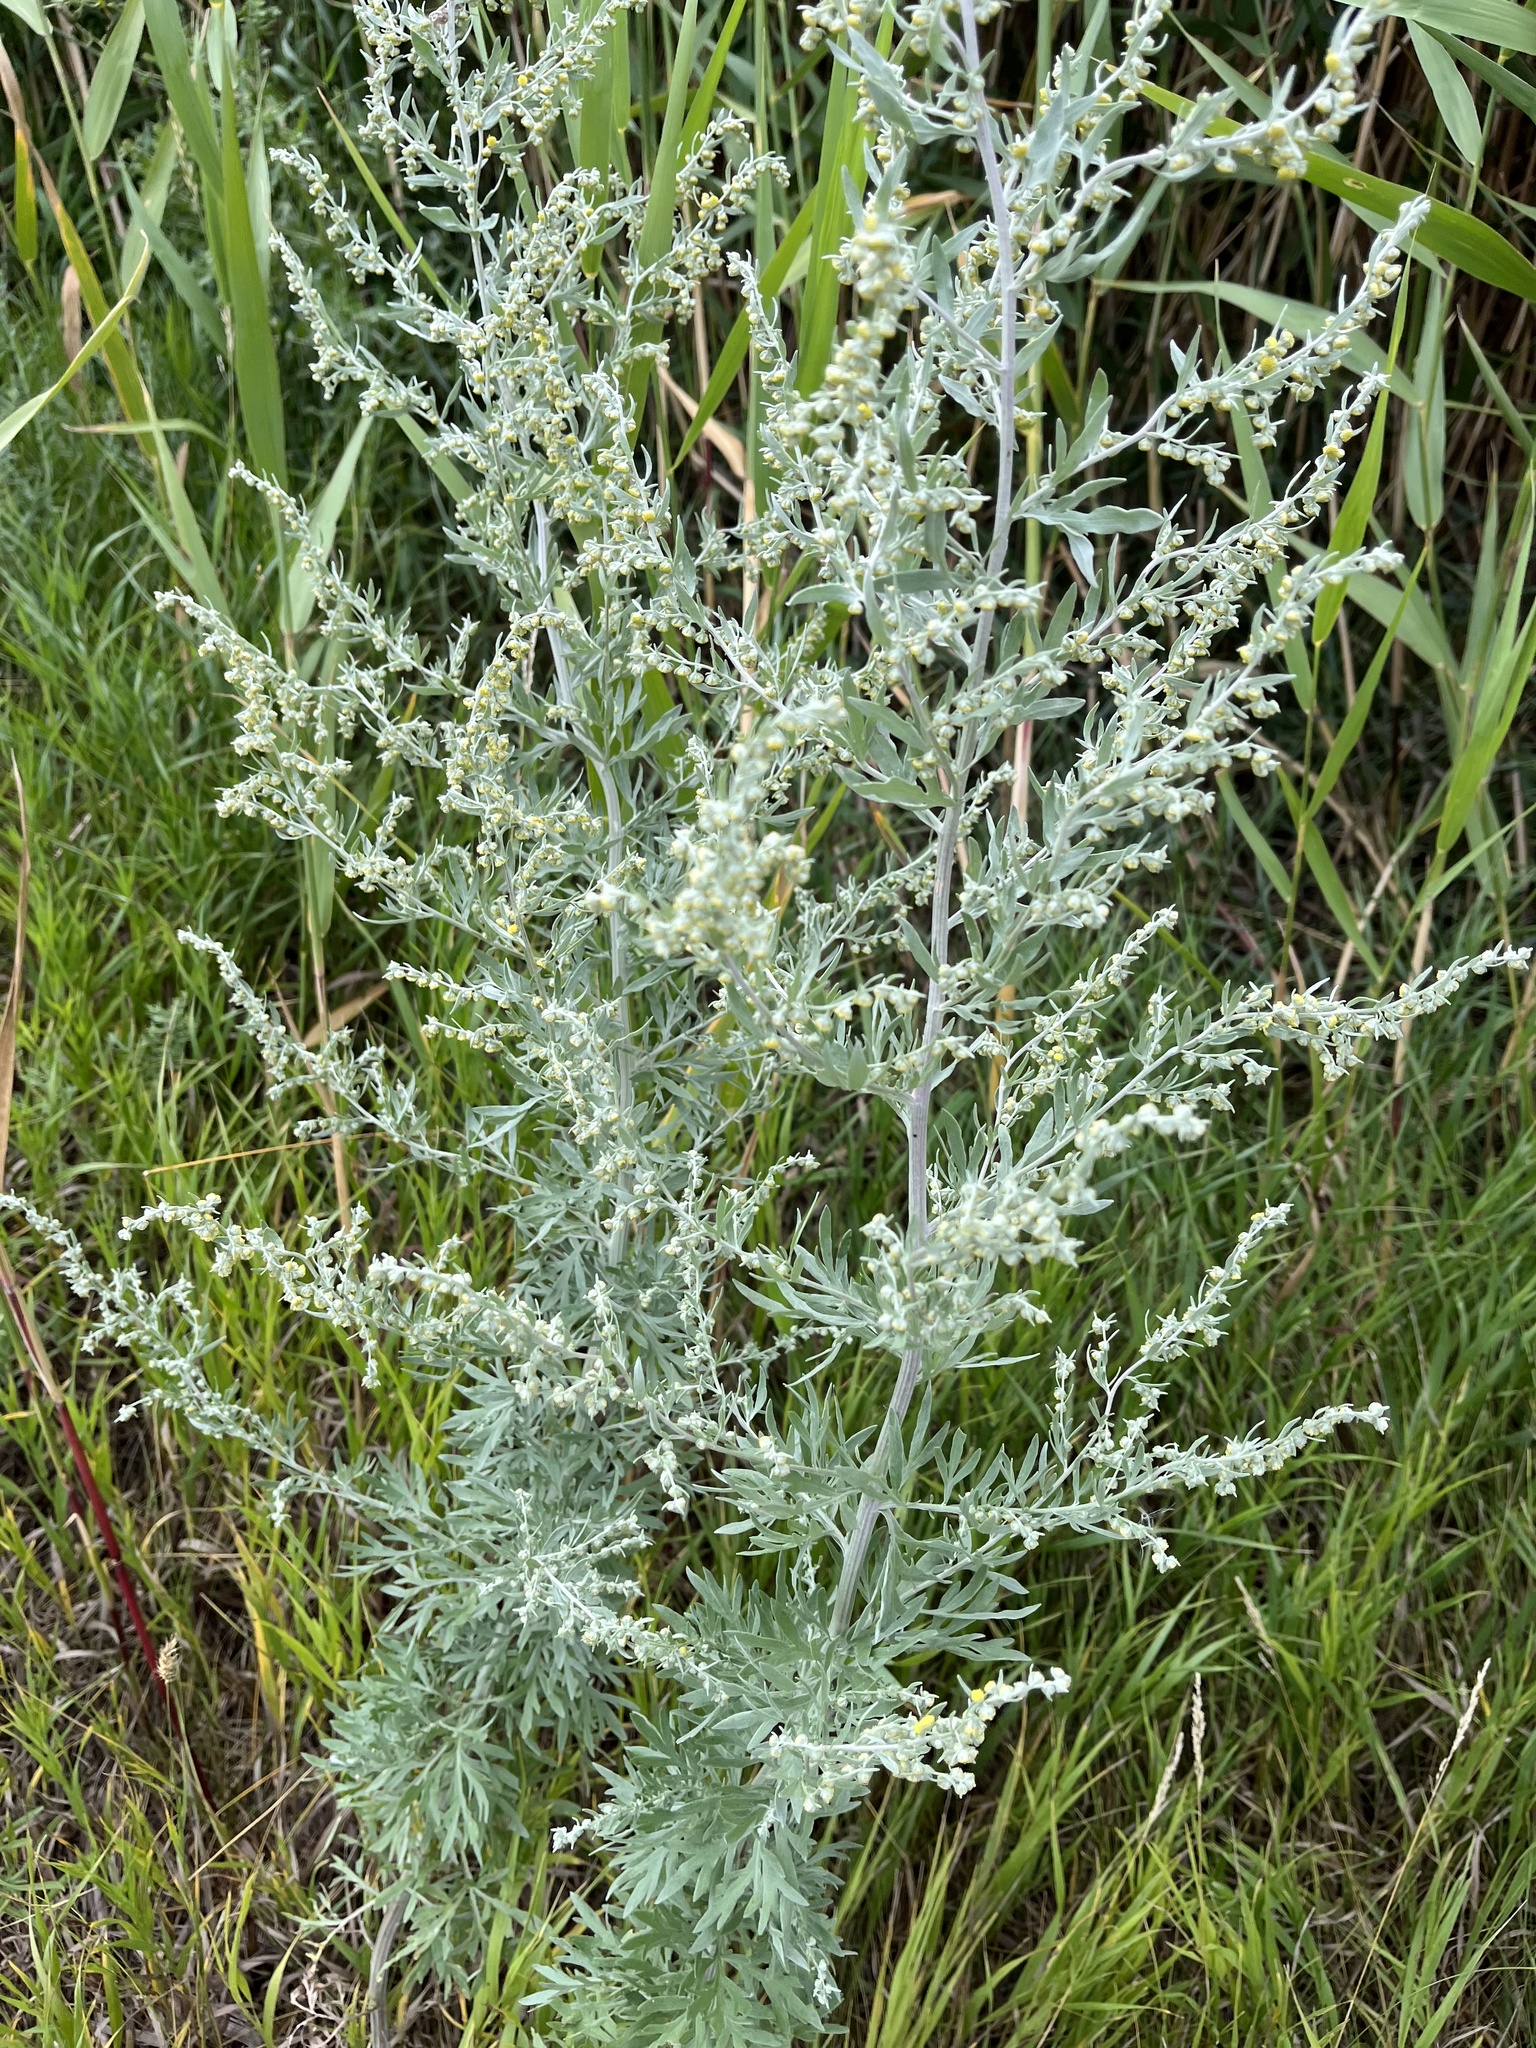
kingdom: Plantae
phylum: Tracheophyta
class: Magnoliopsida
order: Asterales
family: Asteraceae
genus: Artemisia
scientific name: Artemisia absinthium
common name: Wormwood
